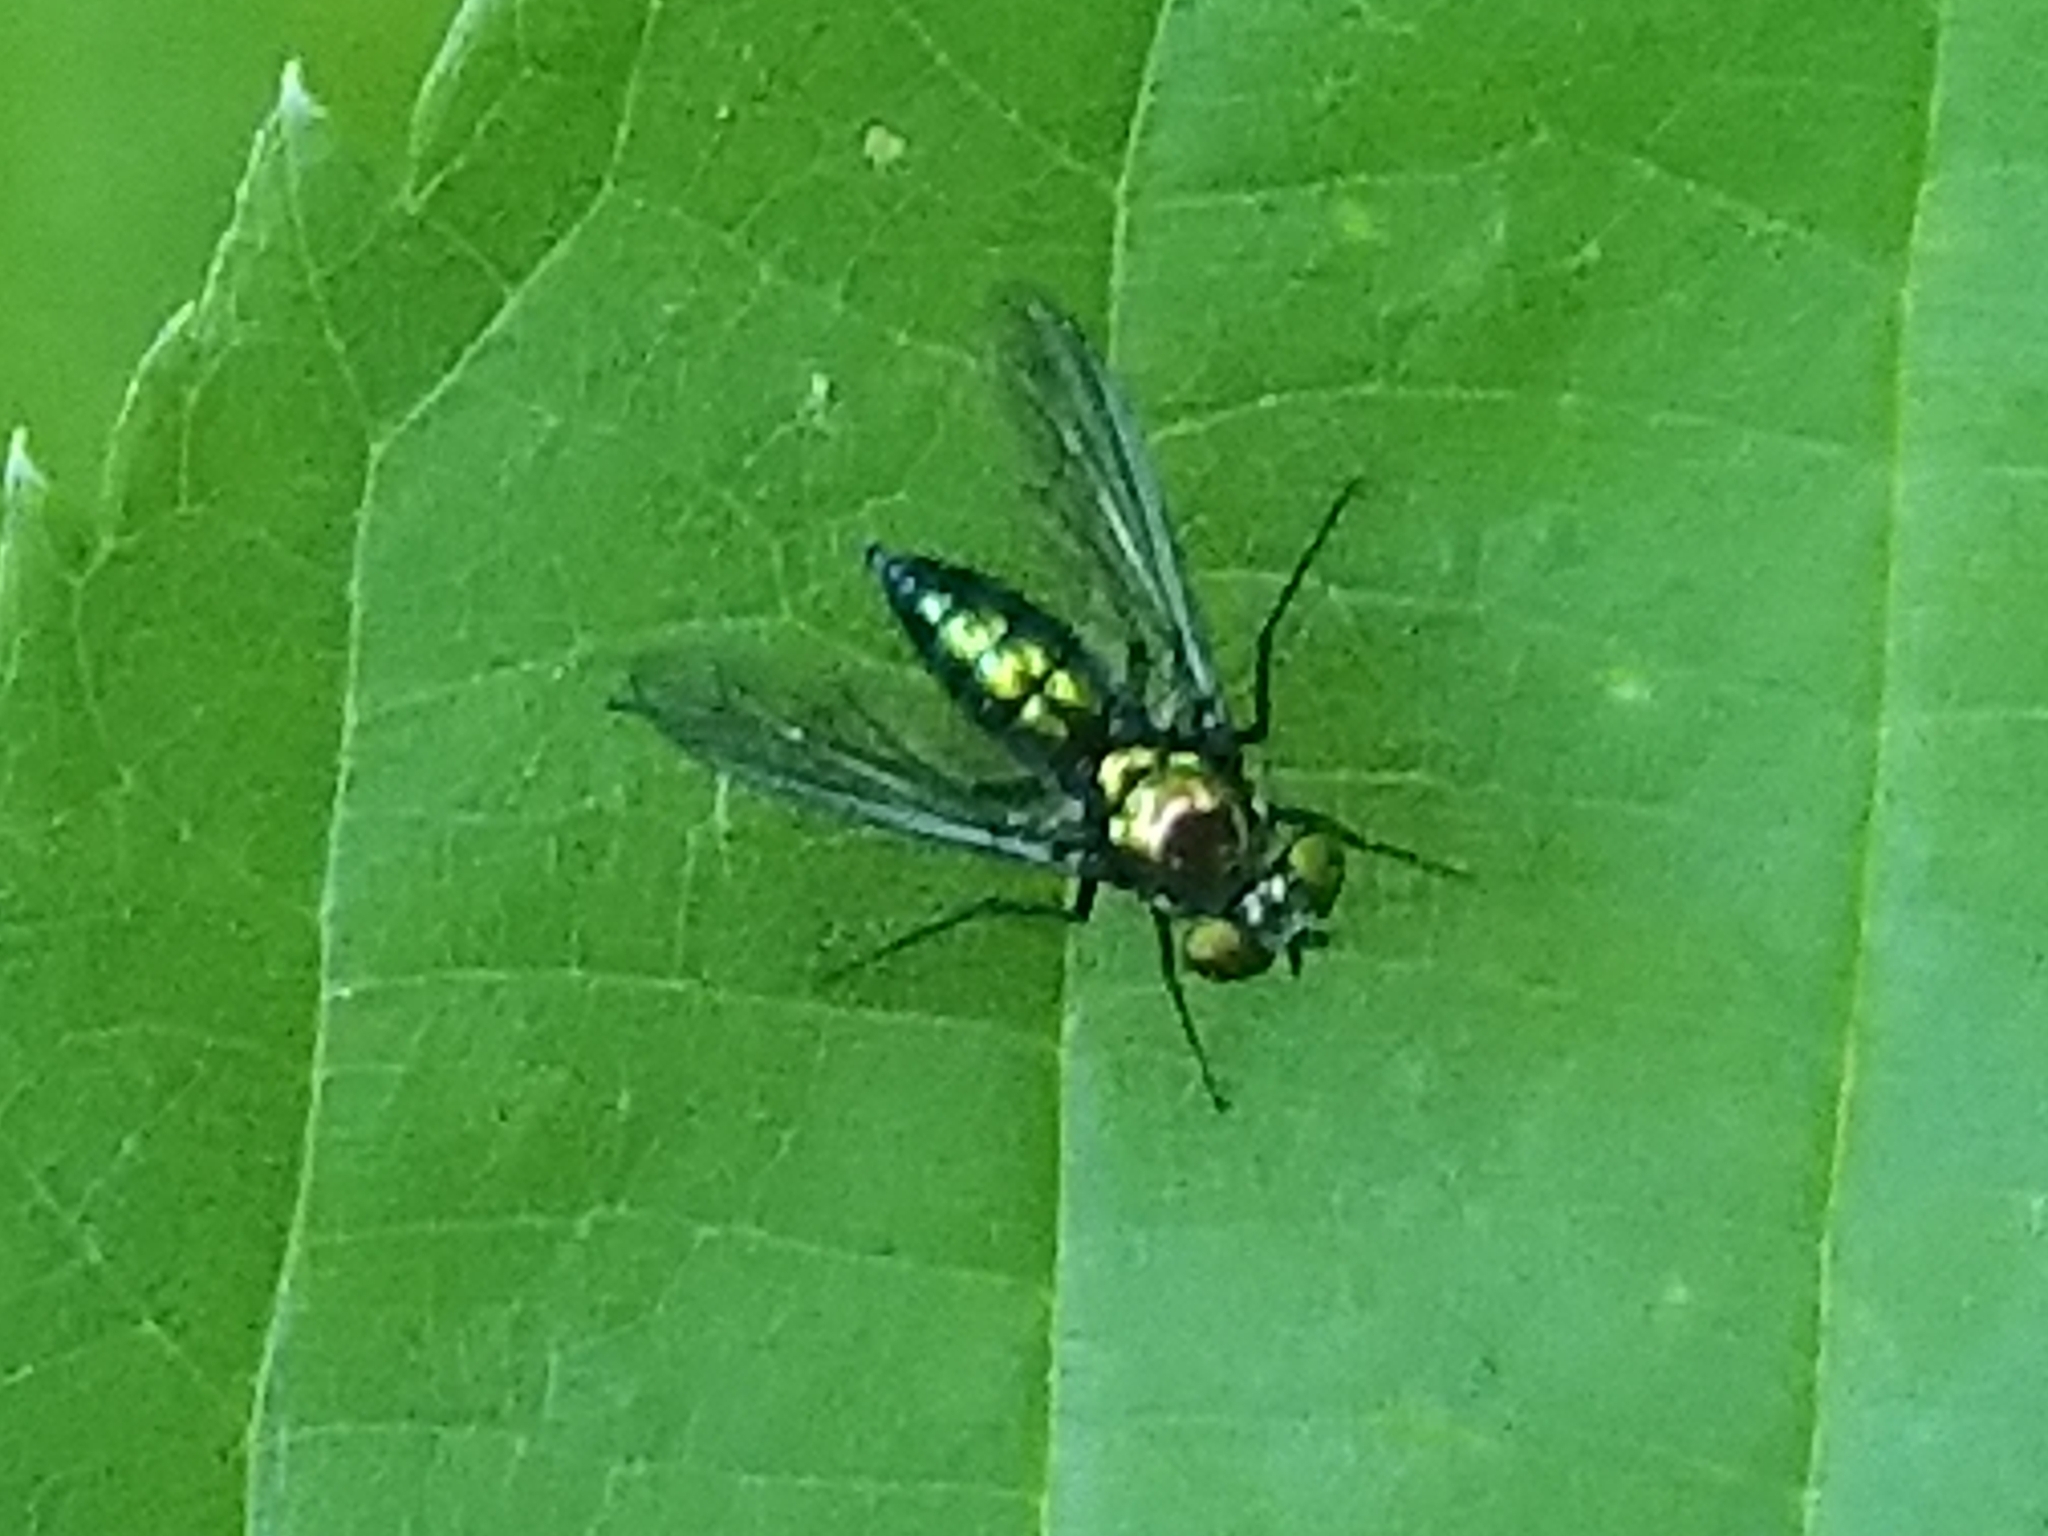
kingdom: Animalia
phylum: Arthropoda
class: Insecta
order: Diptera
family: Dolichopodidae
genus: Condylostylus
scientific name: Condylostylus patibulatus
